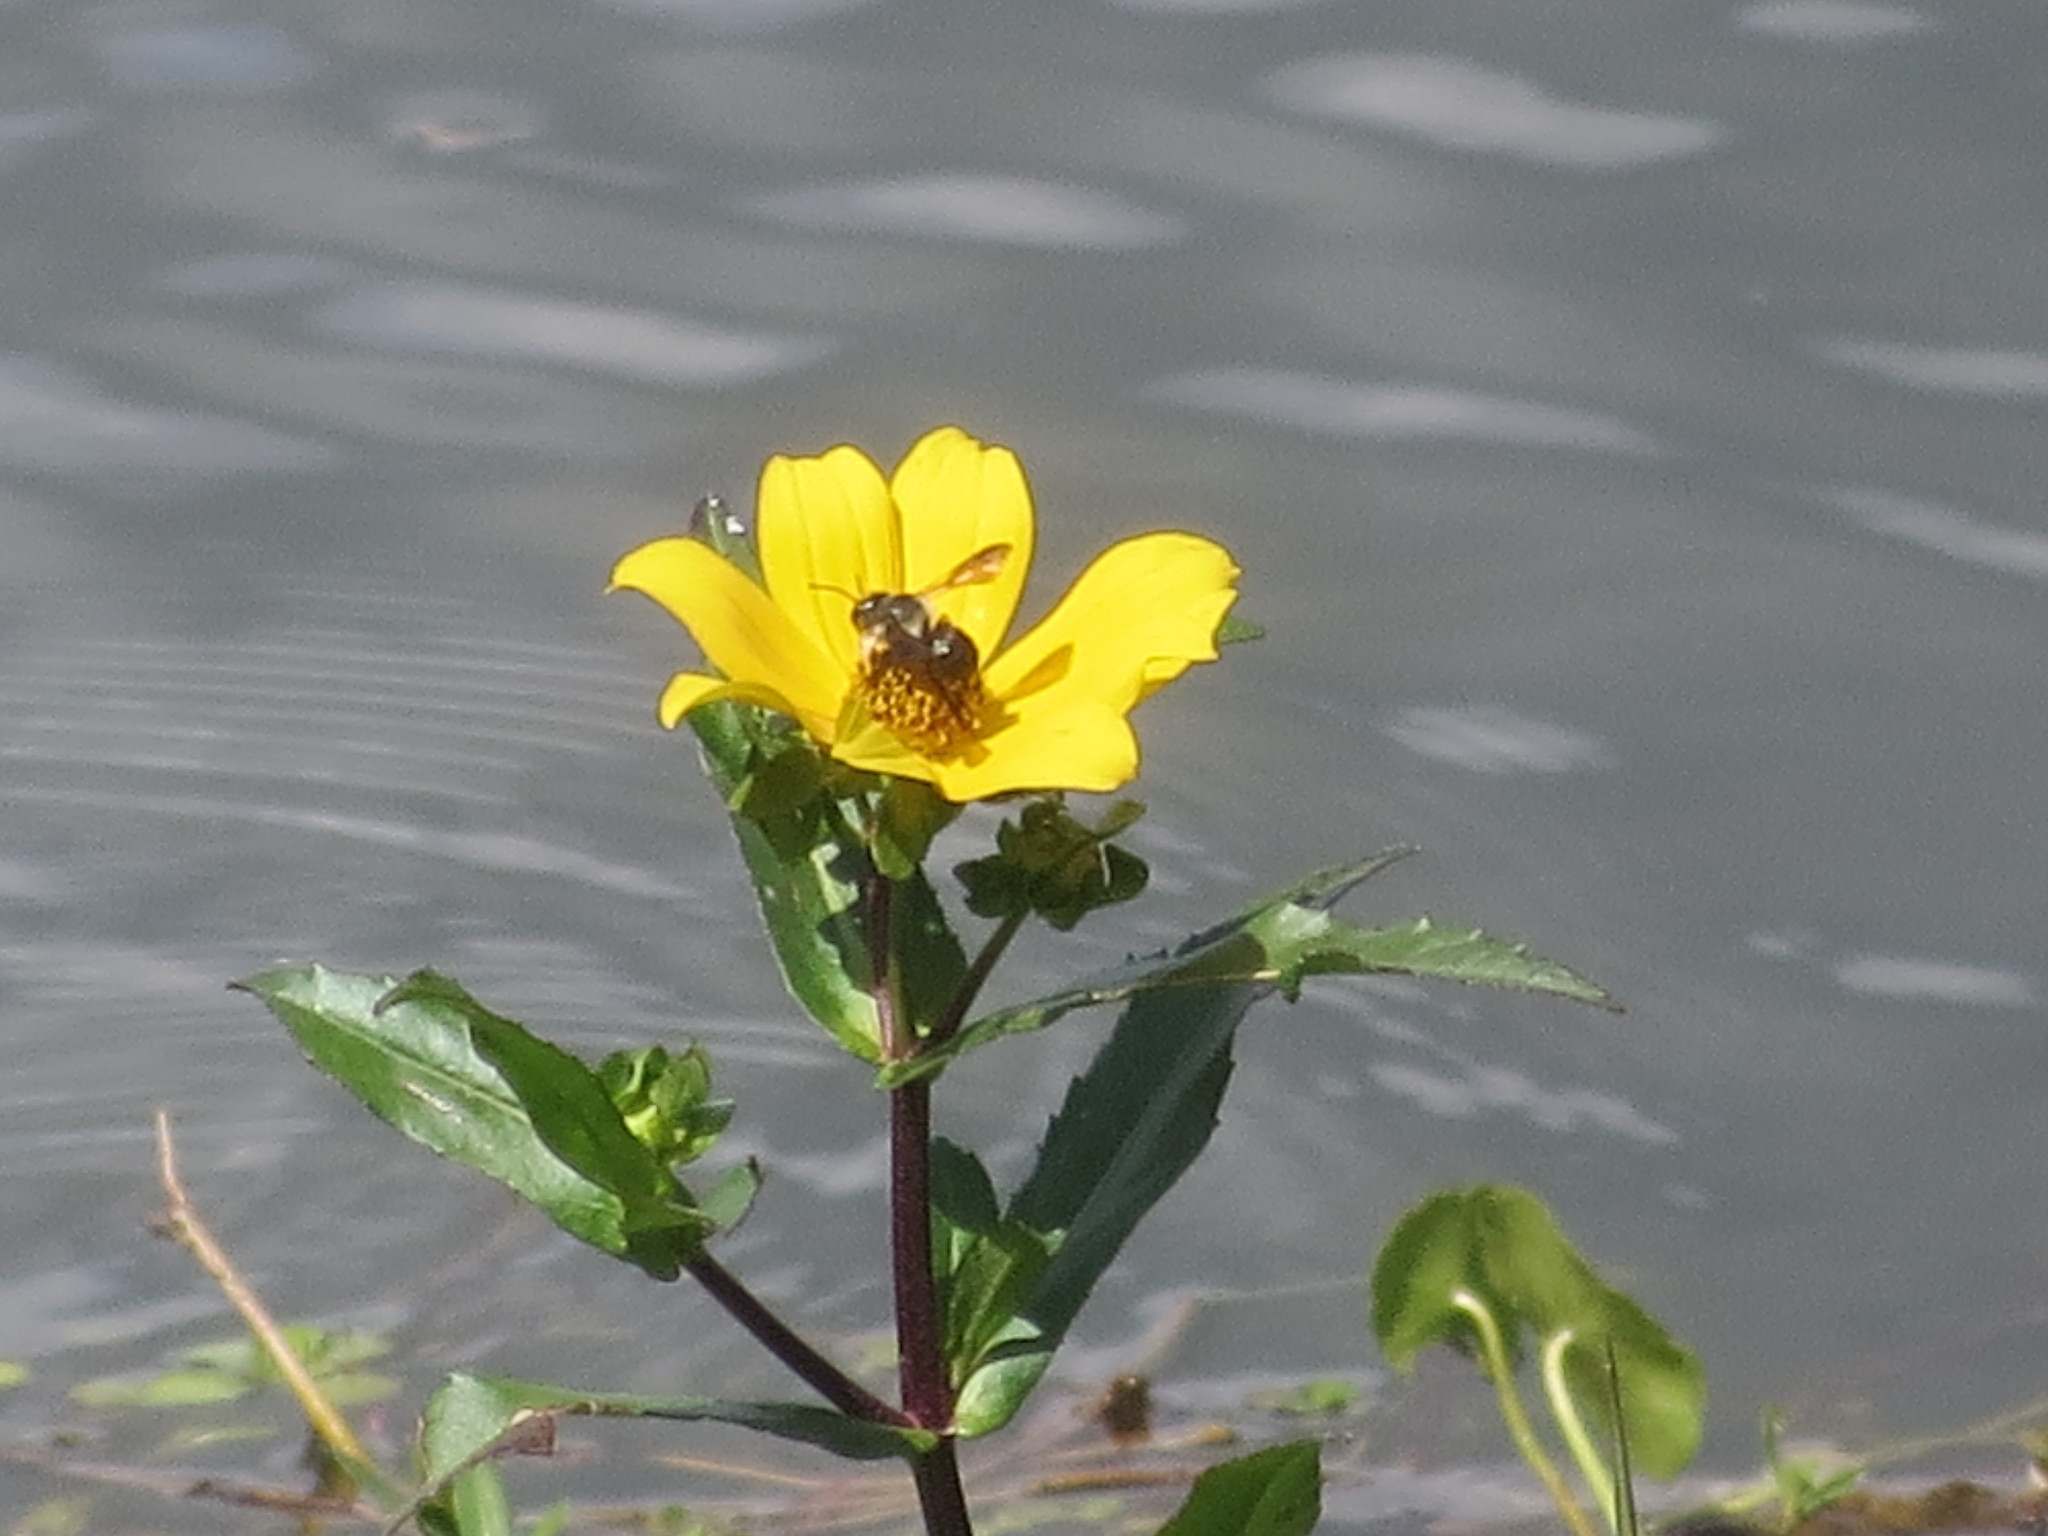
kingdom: Animalia
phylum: Arthropoda
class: Insecta
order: Hymenoptera
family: Megachilidae
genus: Megachile
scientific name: Megachile xylocopoides
